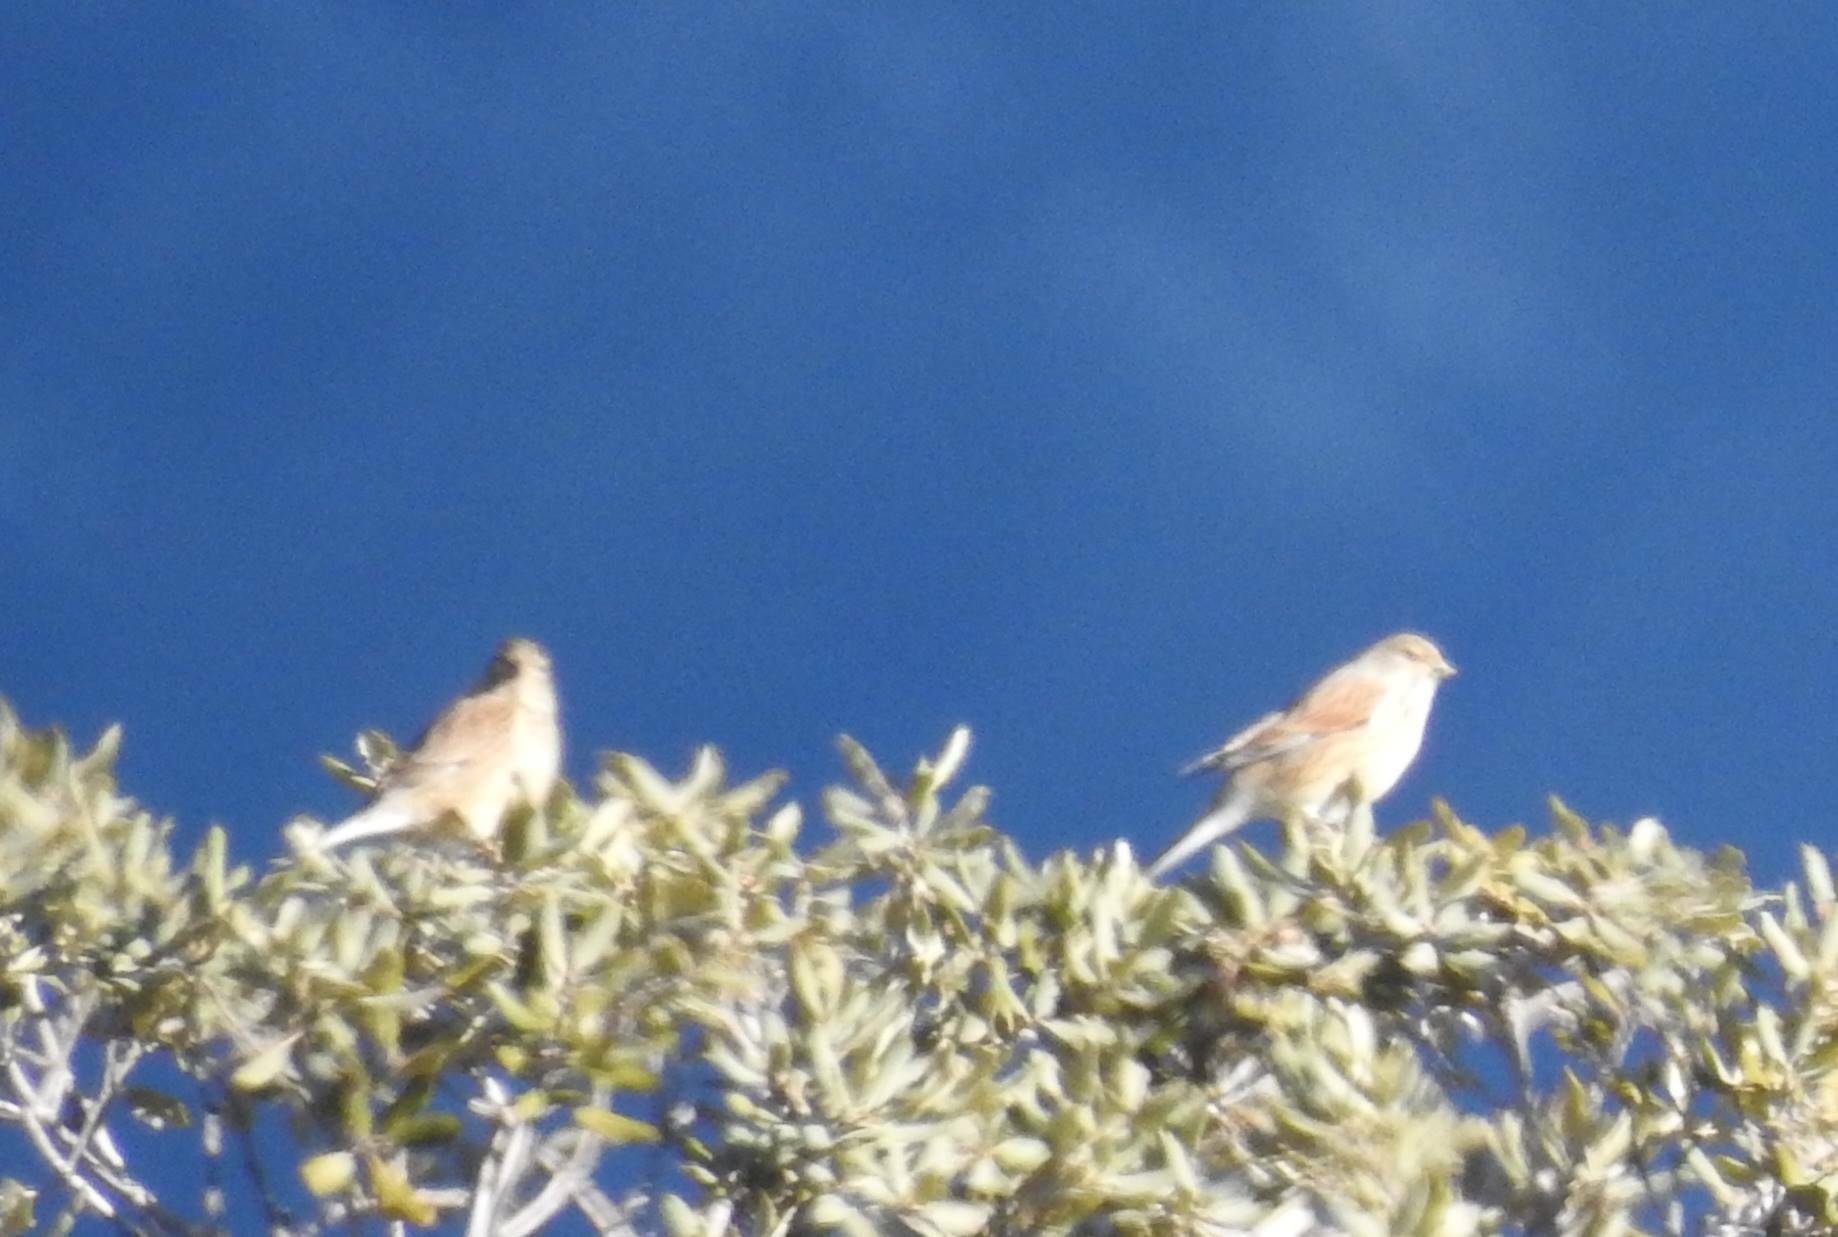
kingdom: Animalia
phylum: Chordata
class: Aves
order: Passeriformes
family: Fringillidae
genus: Linaria
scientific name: Linaria cannabina
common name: Common linnet
